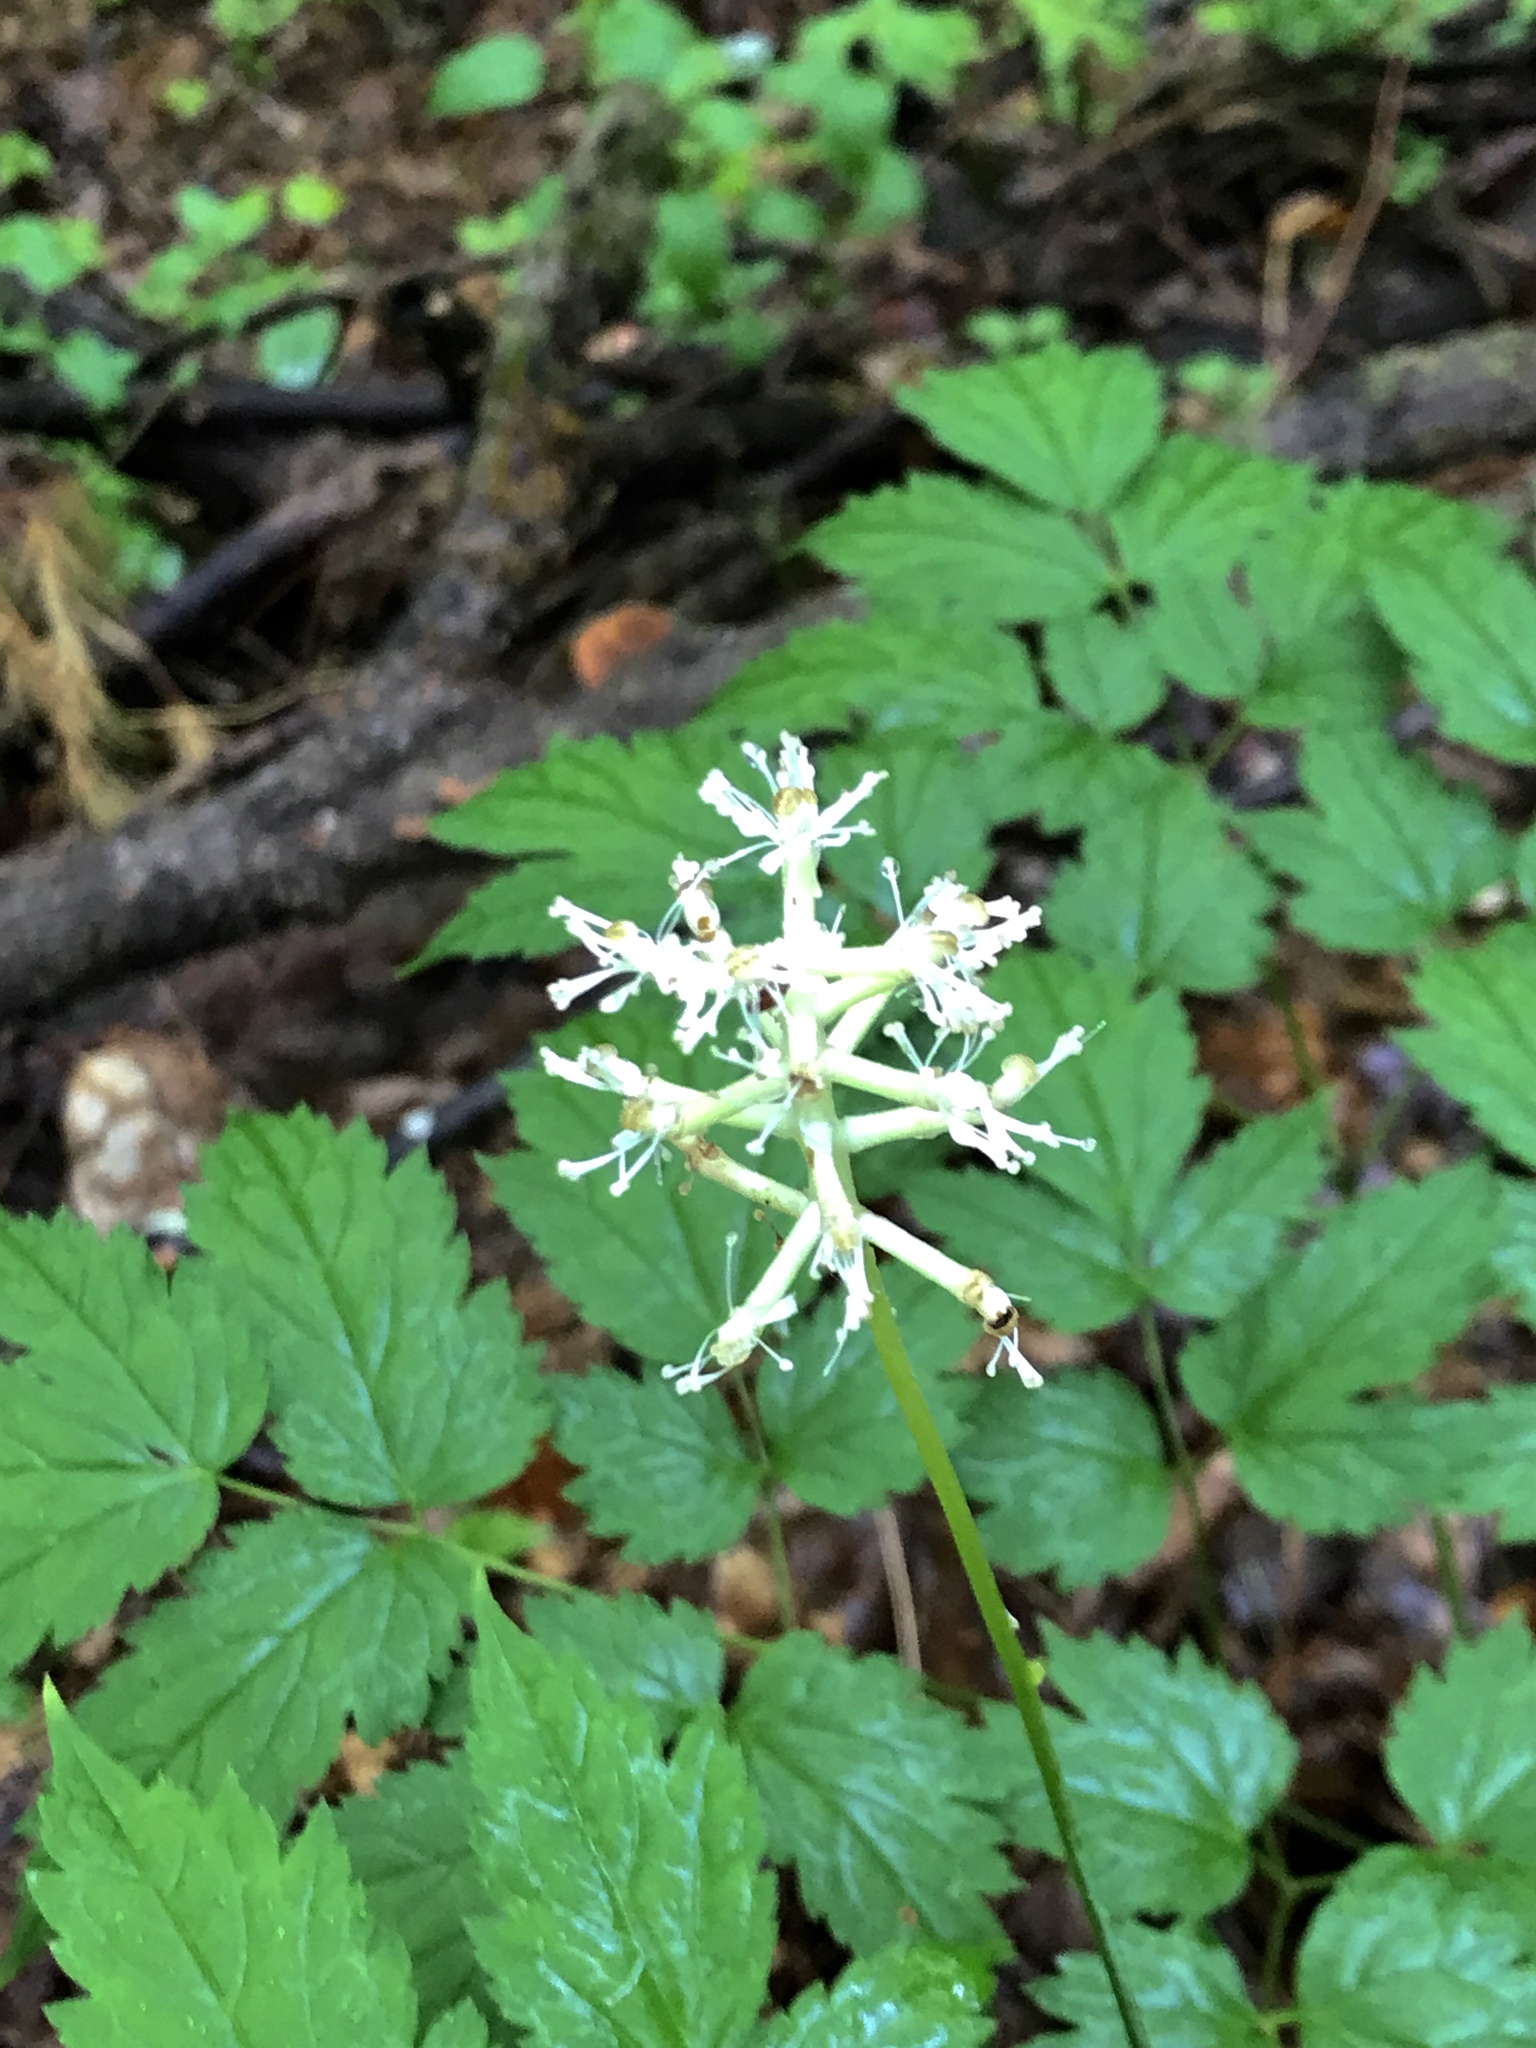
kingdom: Plantae
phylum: Tracheophyta
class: Magnoliopsida
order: Ranunculales
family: Ranunculaceae
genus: Actaea
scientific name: Actaea pachypoda
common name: Doll's-eyes
